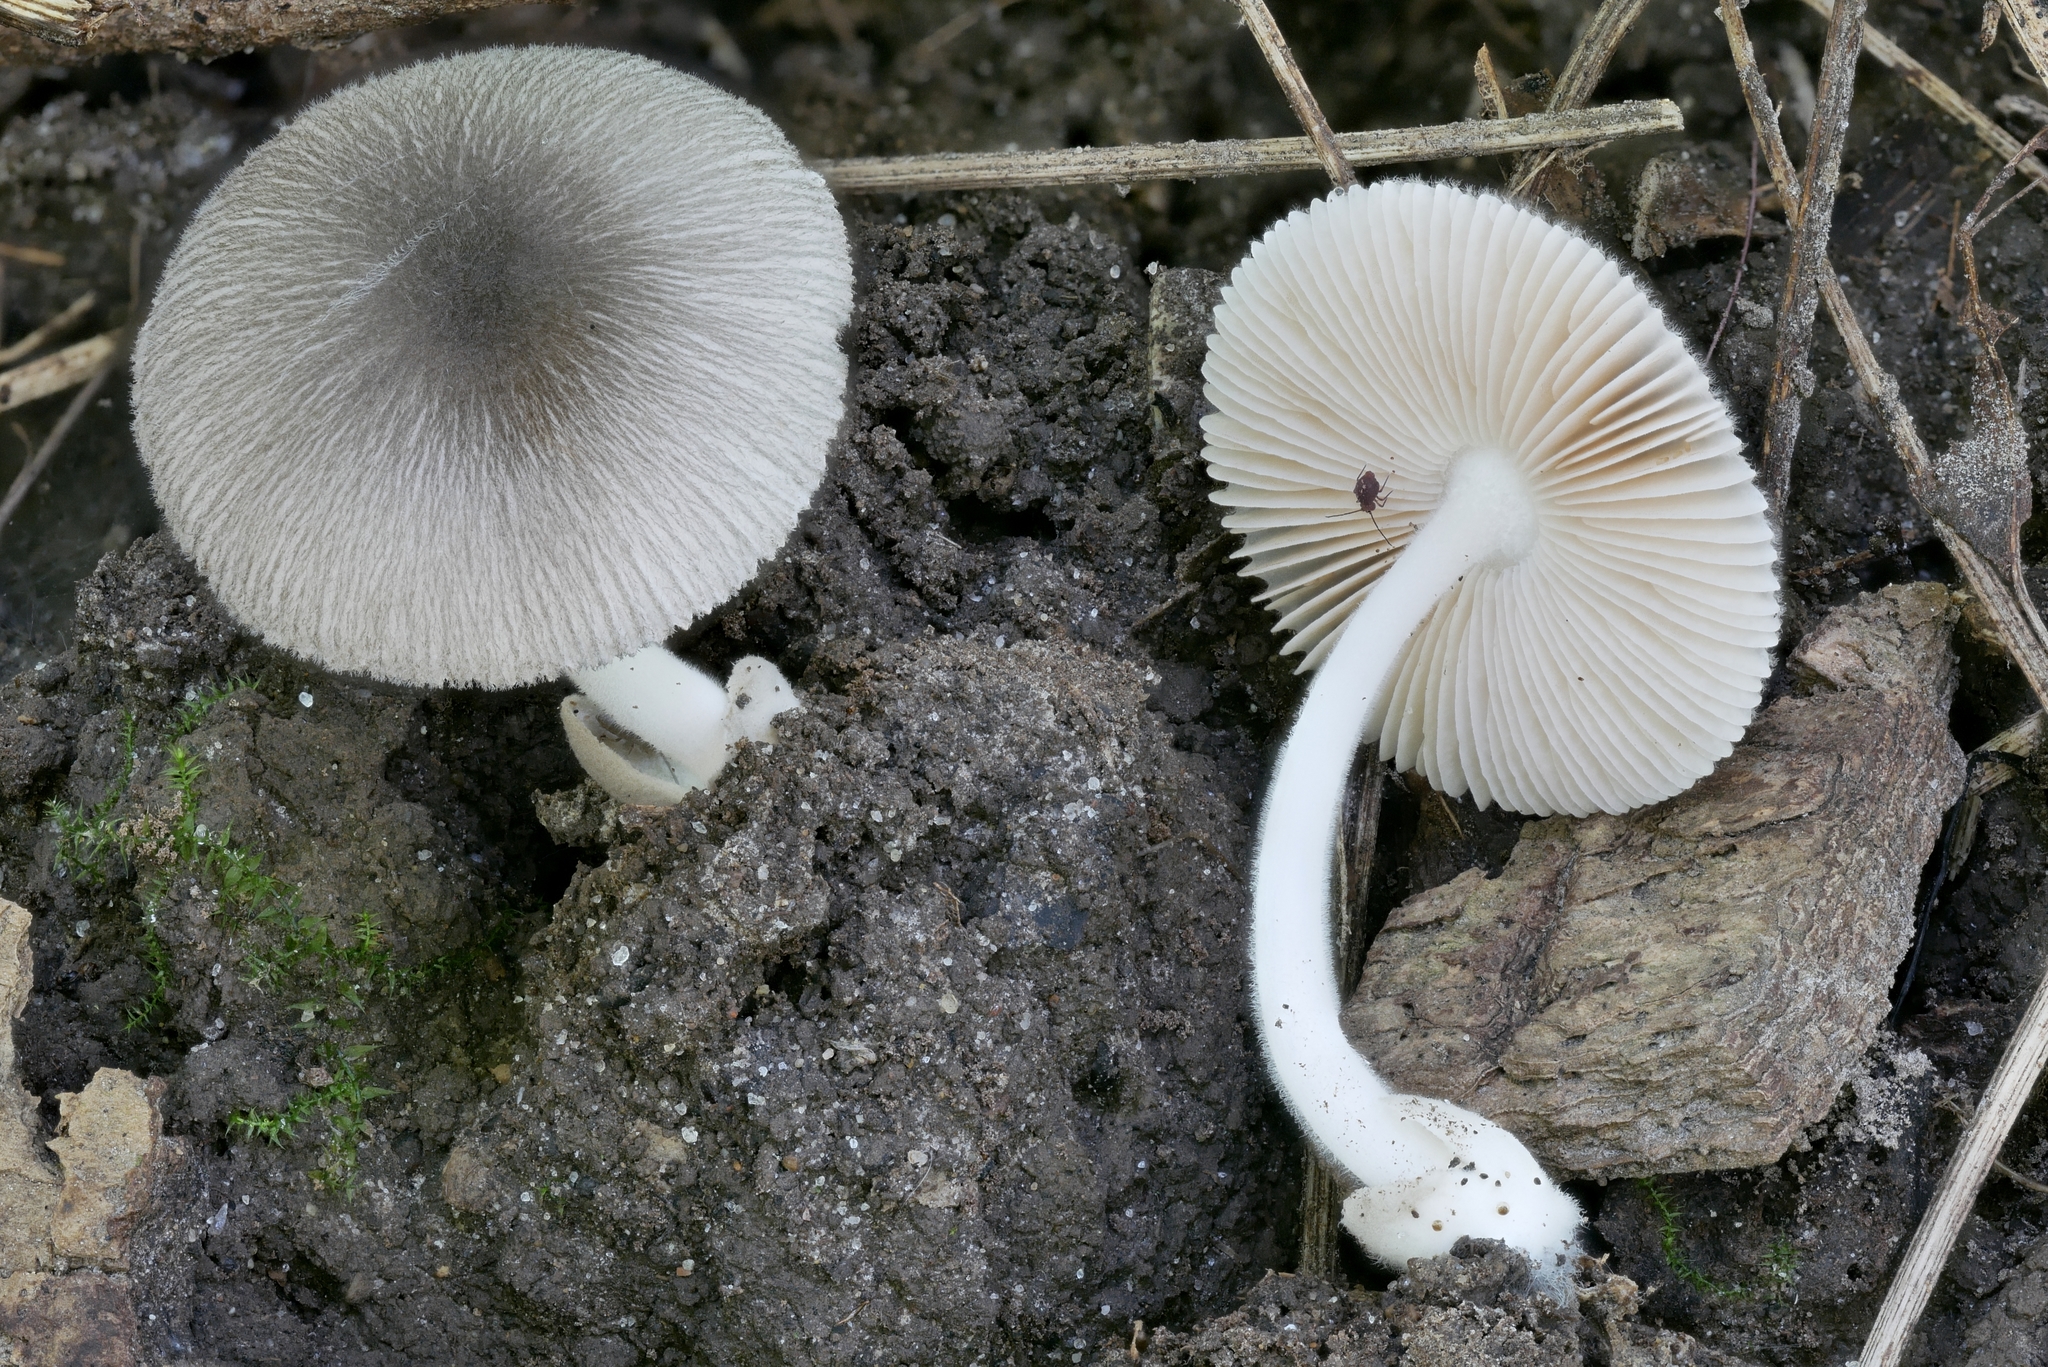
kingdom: Fungi
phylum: Basidiomycota
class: Agaricomycetes
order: Agaricales
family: Pluteaceae
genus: Volvariella
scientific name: Volvariella nigrodisca
